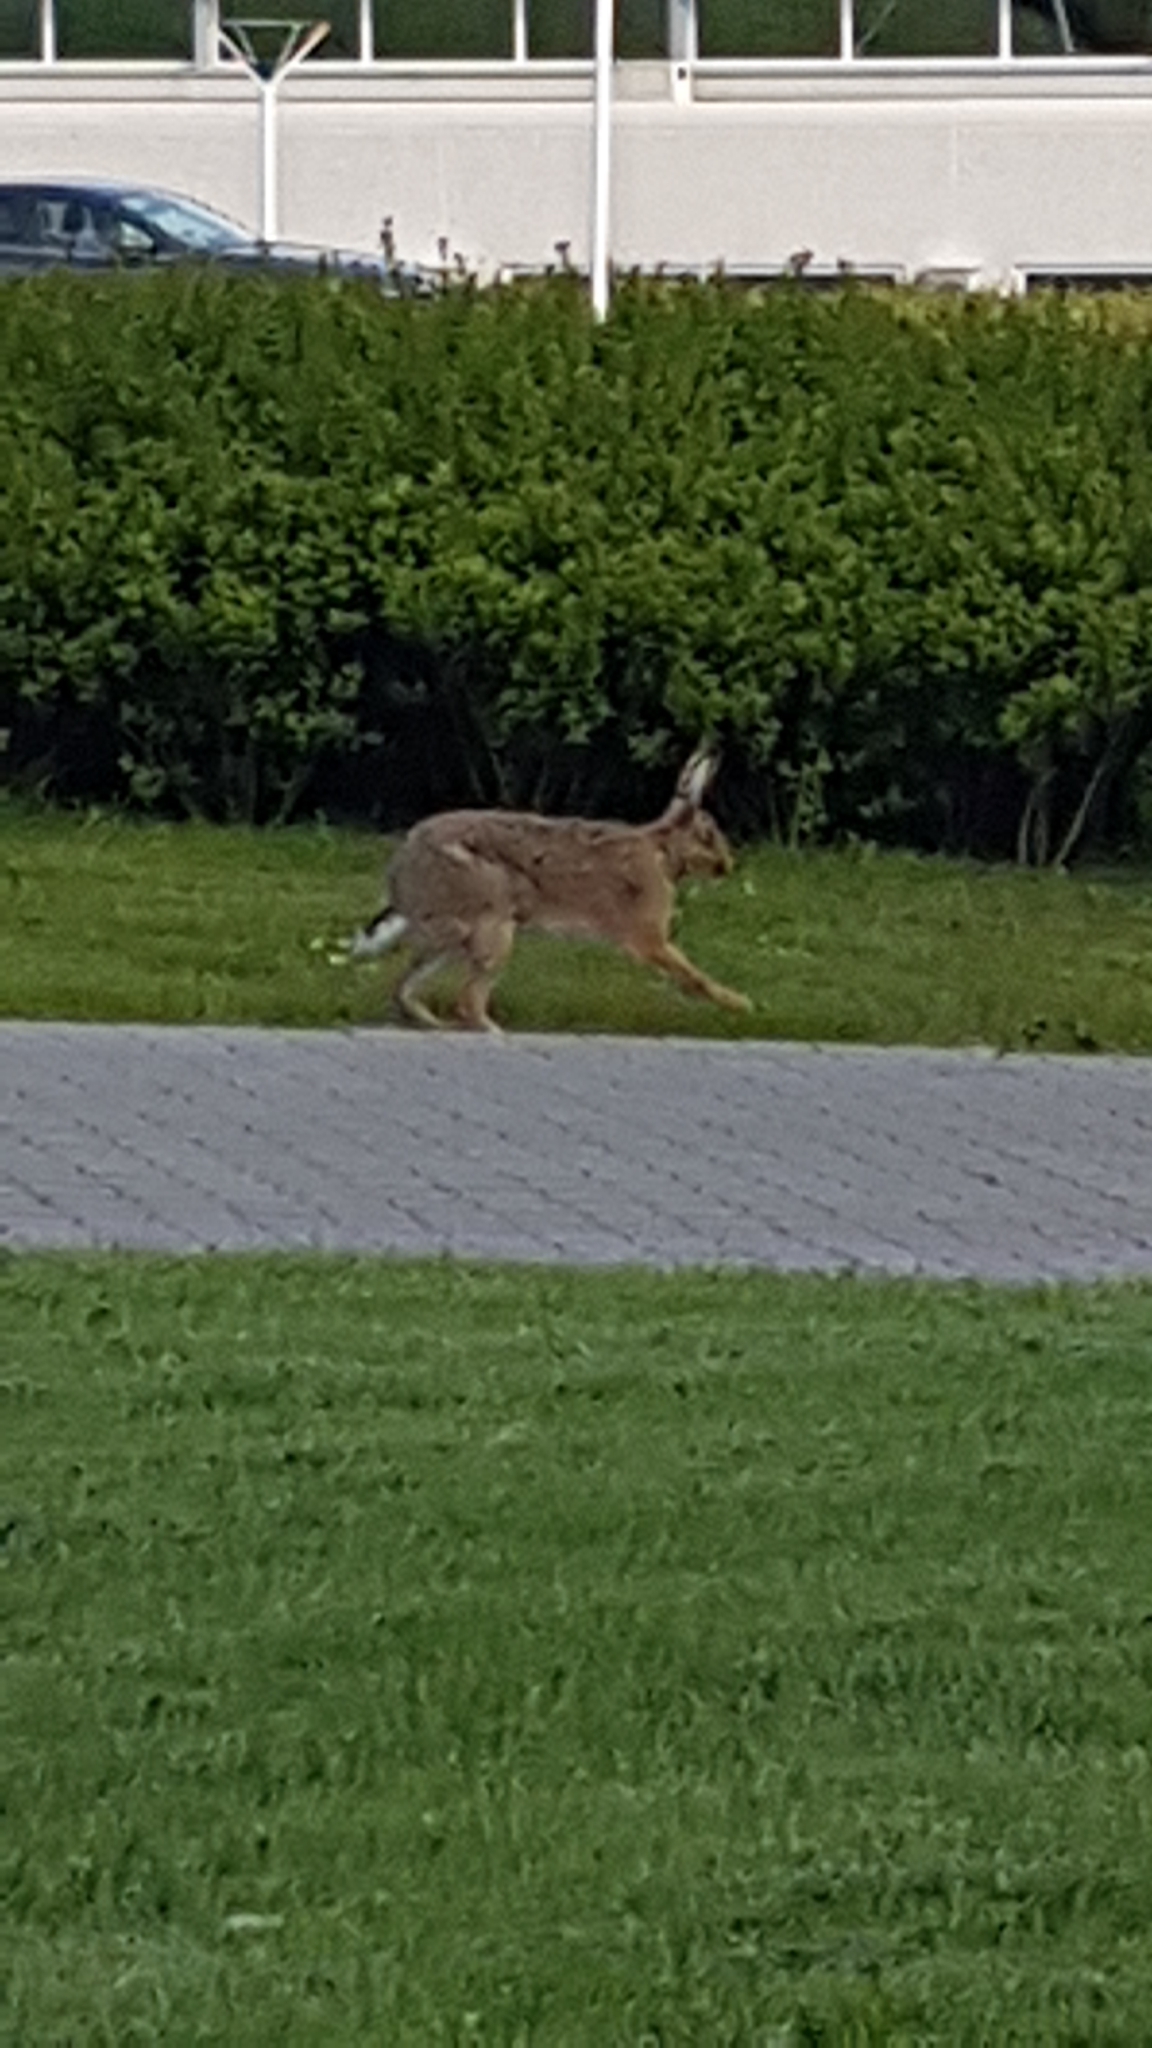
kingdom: Animalia
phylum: Chordata
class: Mammalia
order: Lagomorpha
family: Leporidae
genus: Lepus
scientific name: Lepus europaeus
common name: European hare
